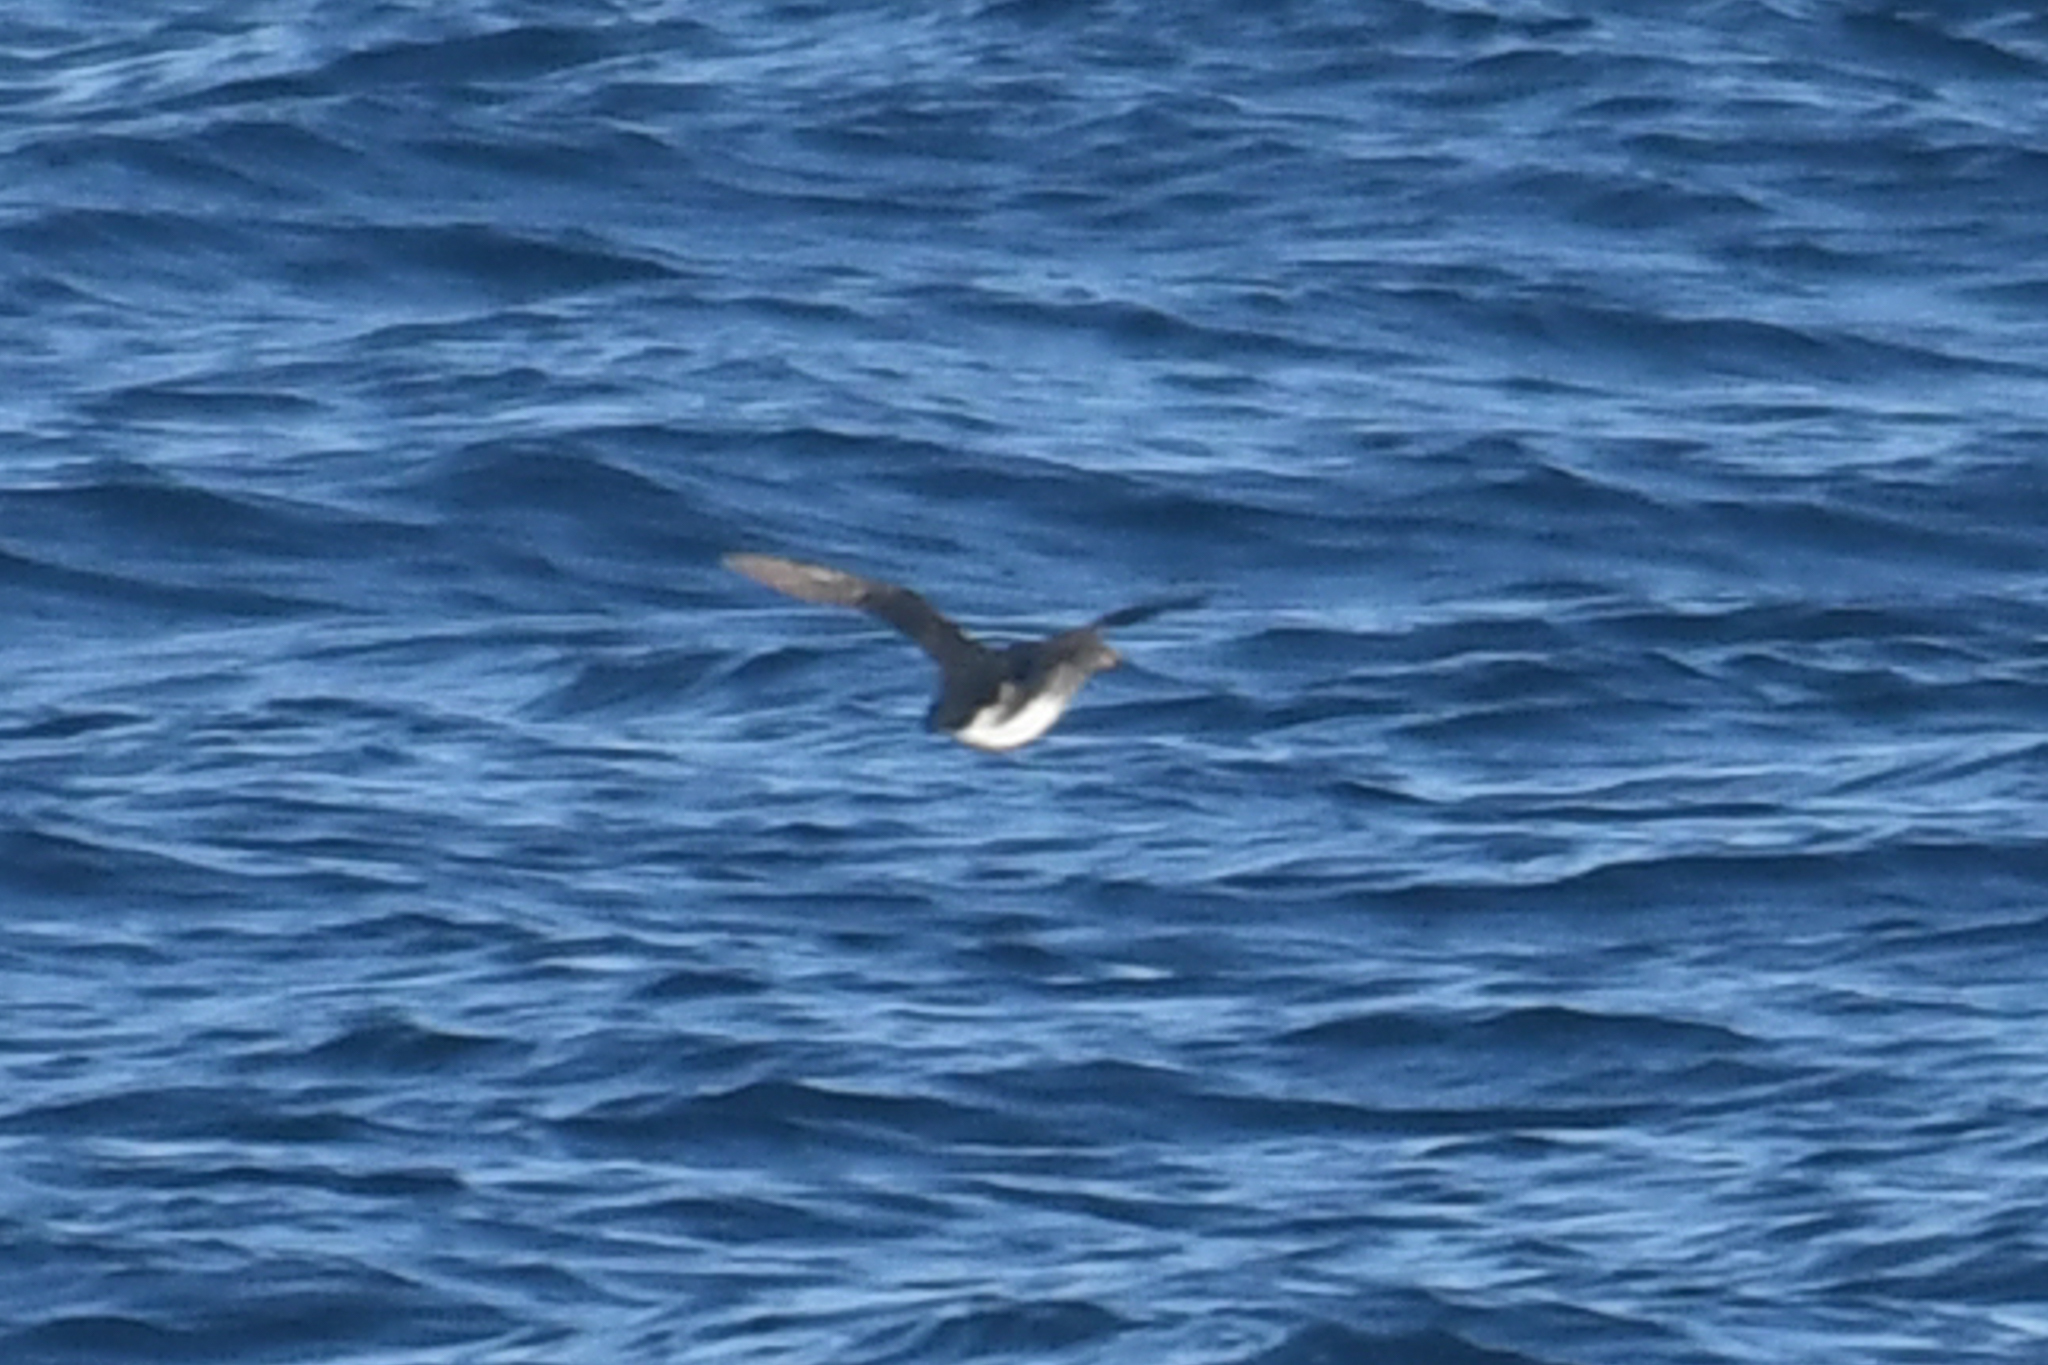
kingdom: Animalia
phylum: Chordata
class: Aves
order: Charadriiformes
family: Alcidae
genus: Cerorhinca
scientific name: Cerorhinca monocerata
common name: Rhinoceros auklet
